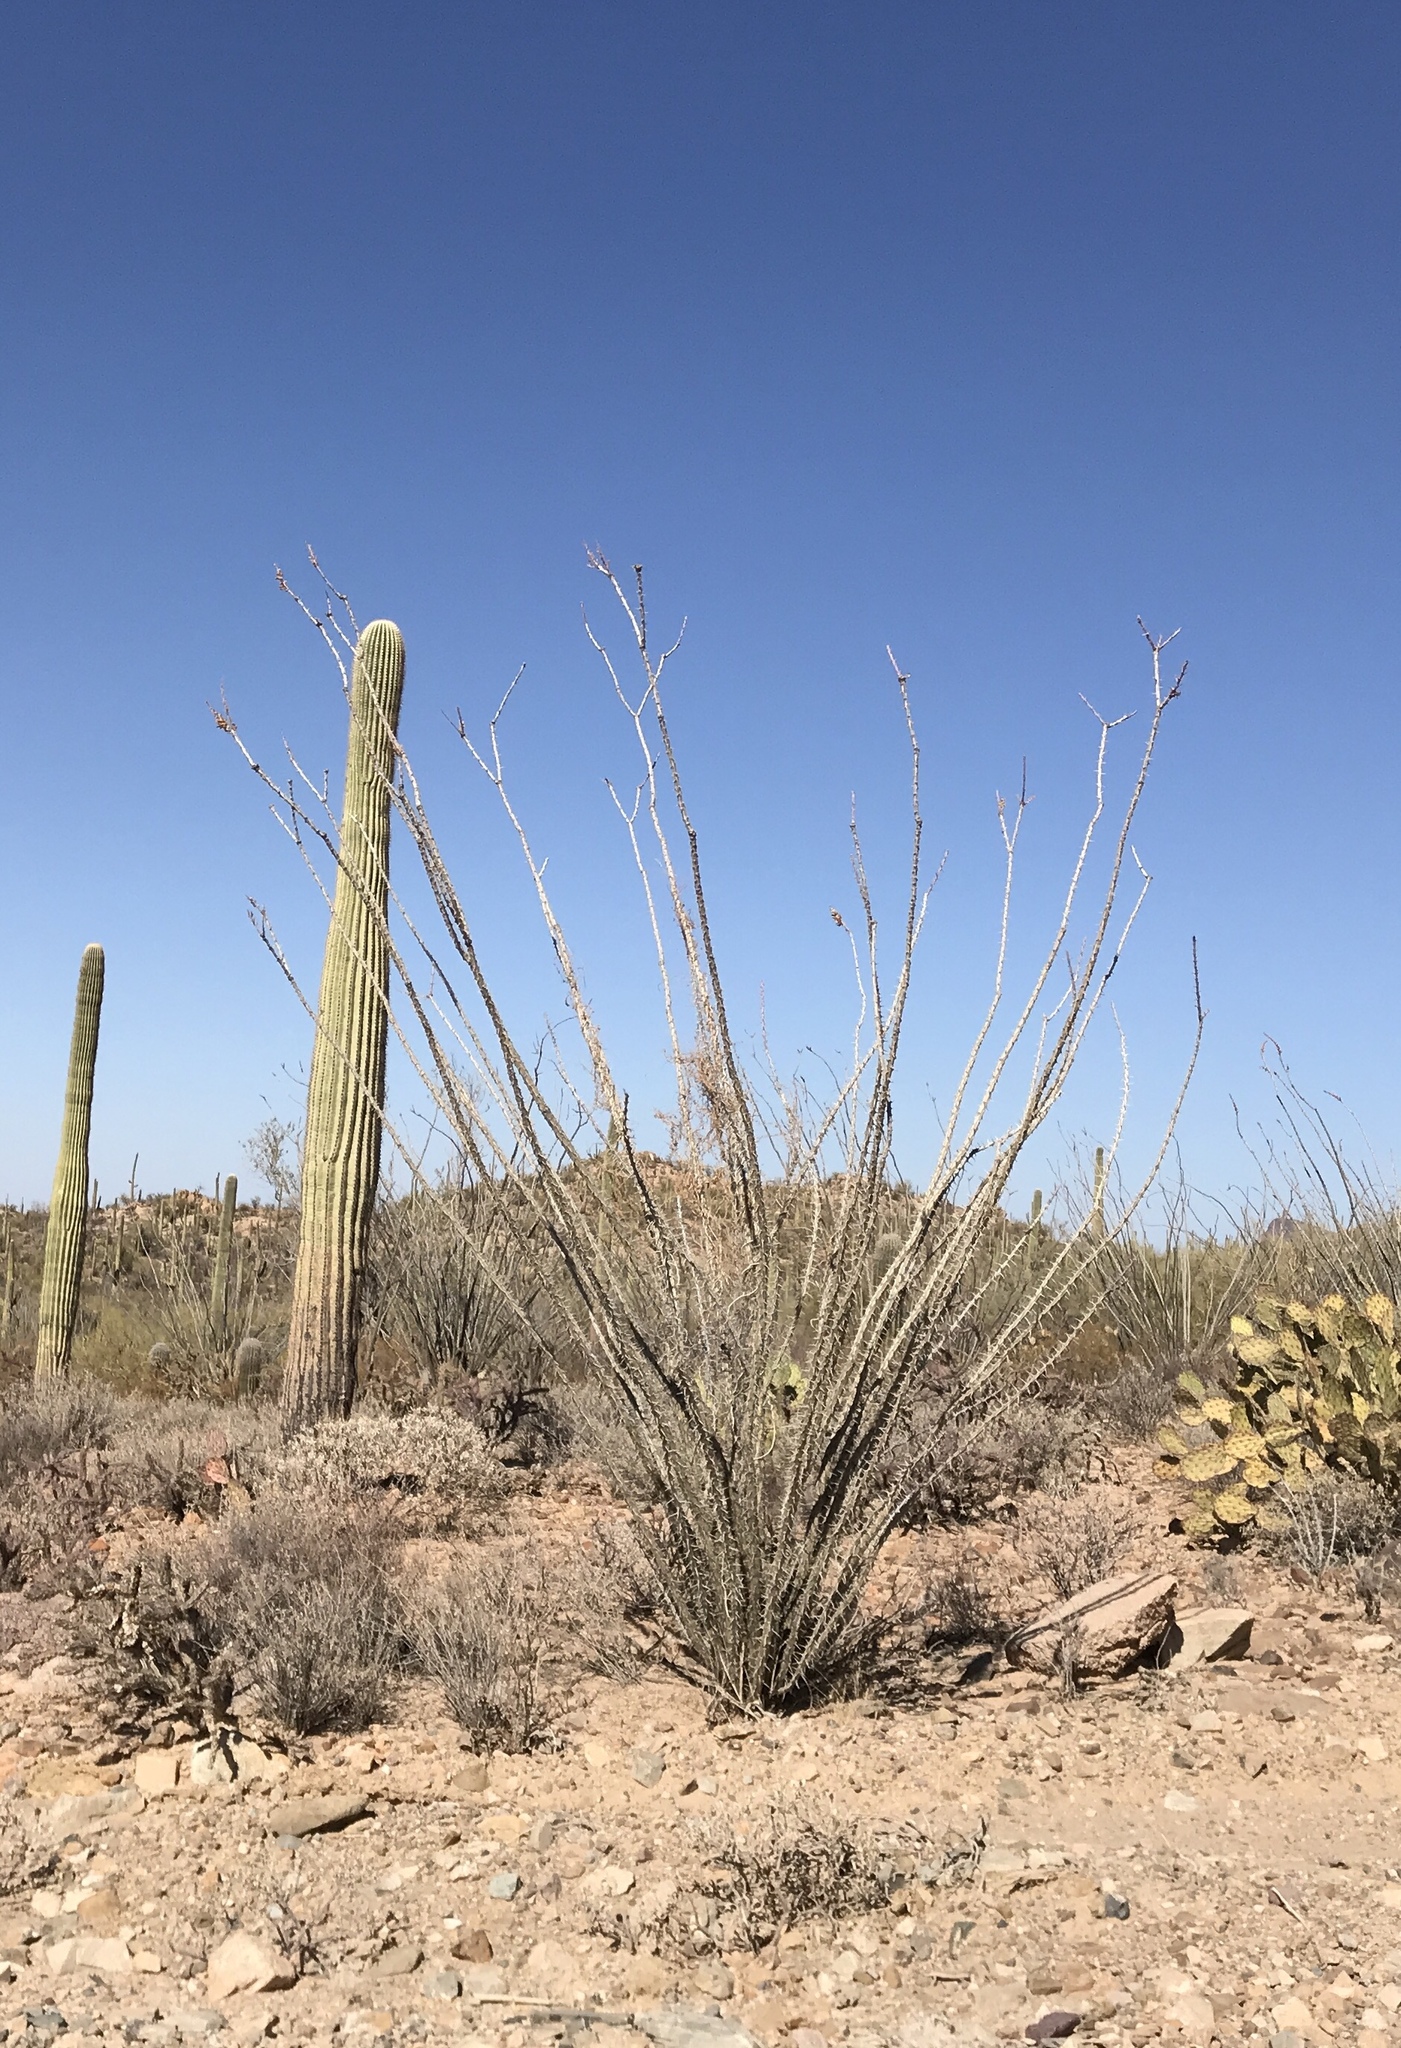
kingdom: Plantae
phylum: Tracheophyta
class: Magnoliopsida
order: Ericales
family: Fouquieriaceae
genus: Fouquieria
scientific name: Fouquieria splendens
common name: Vine-cactus
